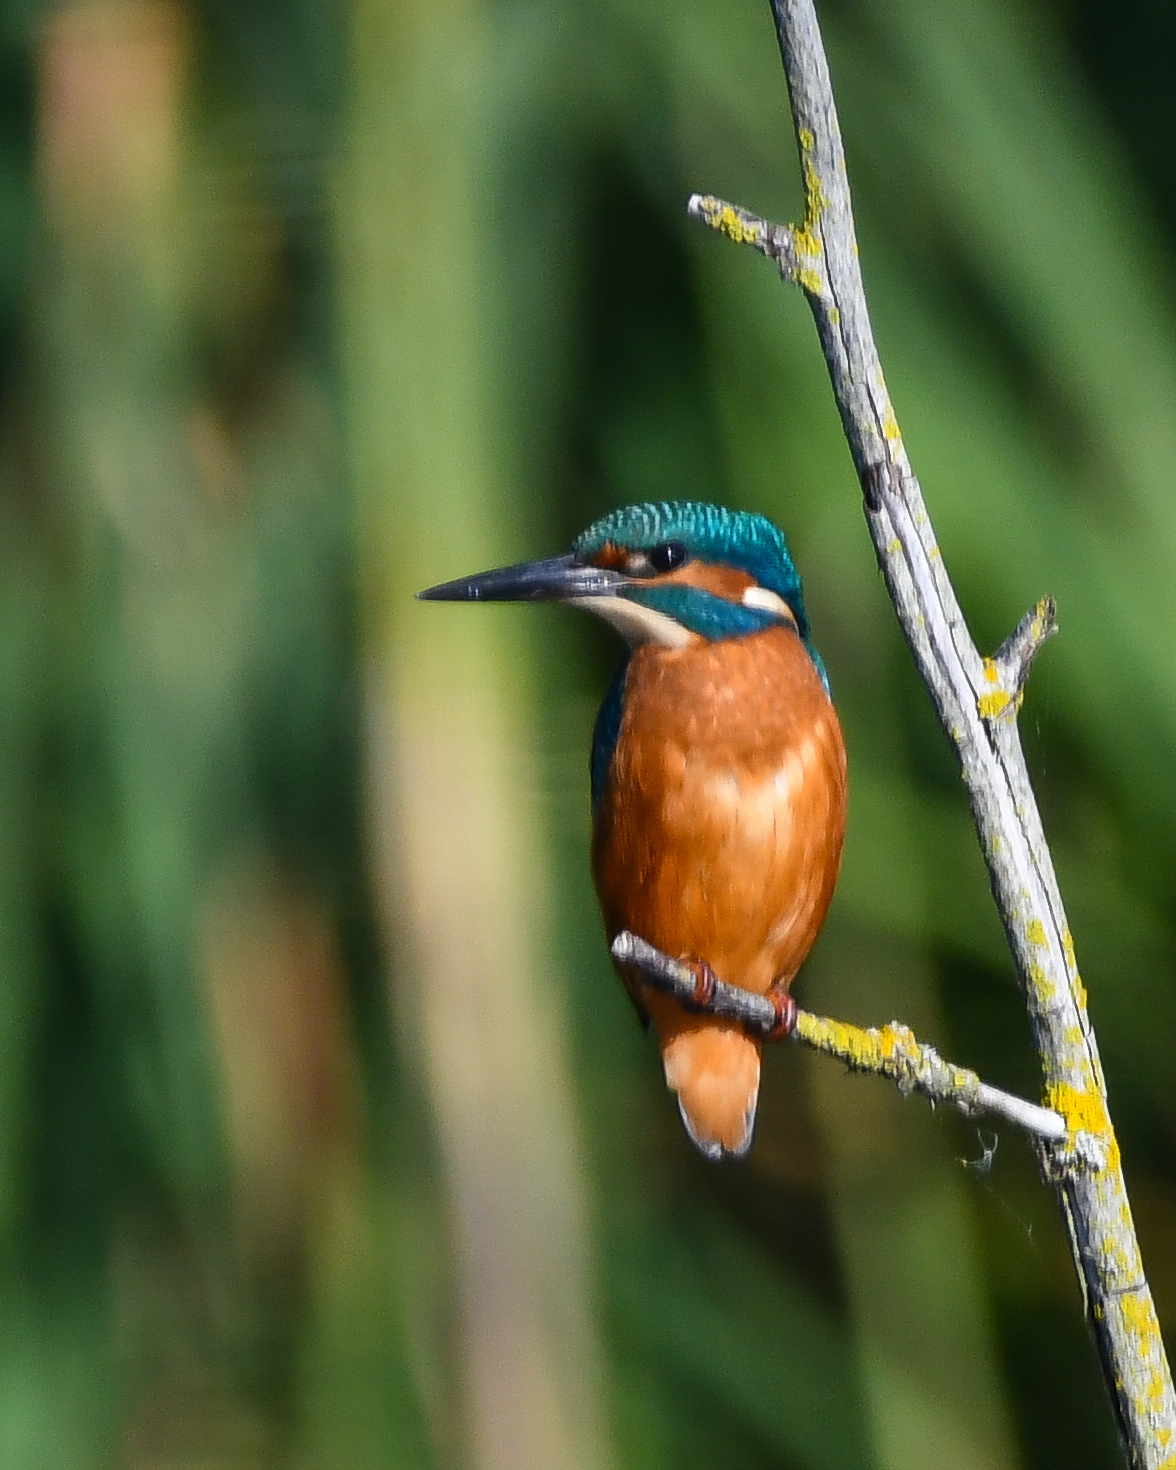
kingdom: Animalia
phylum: Chordata
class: Aves
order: Coraciiformes
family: Alcedinidae
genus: Alcedo
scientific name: Alcedo atthis
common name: Common kingfisher
